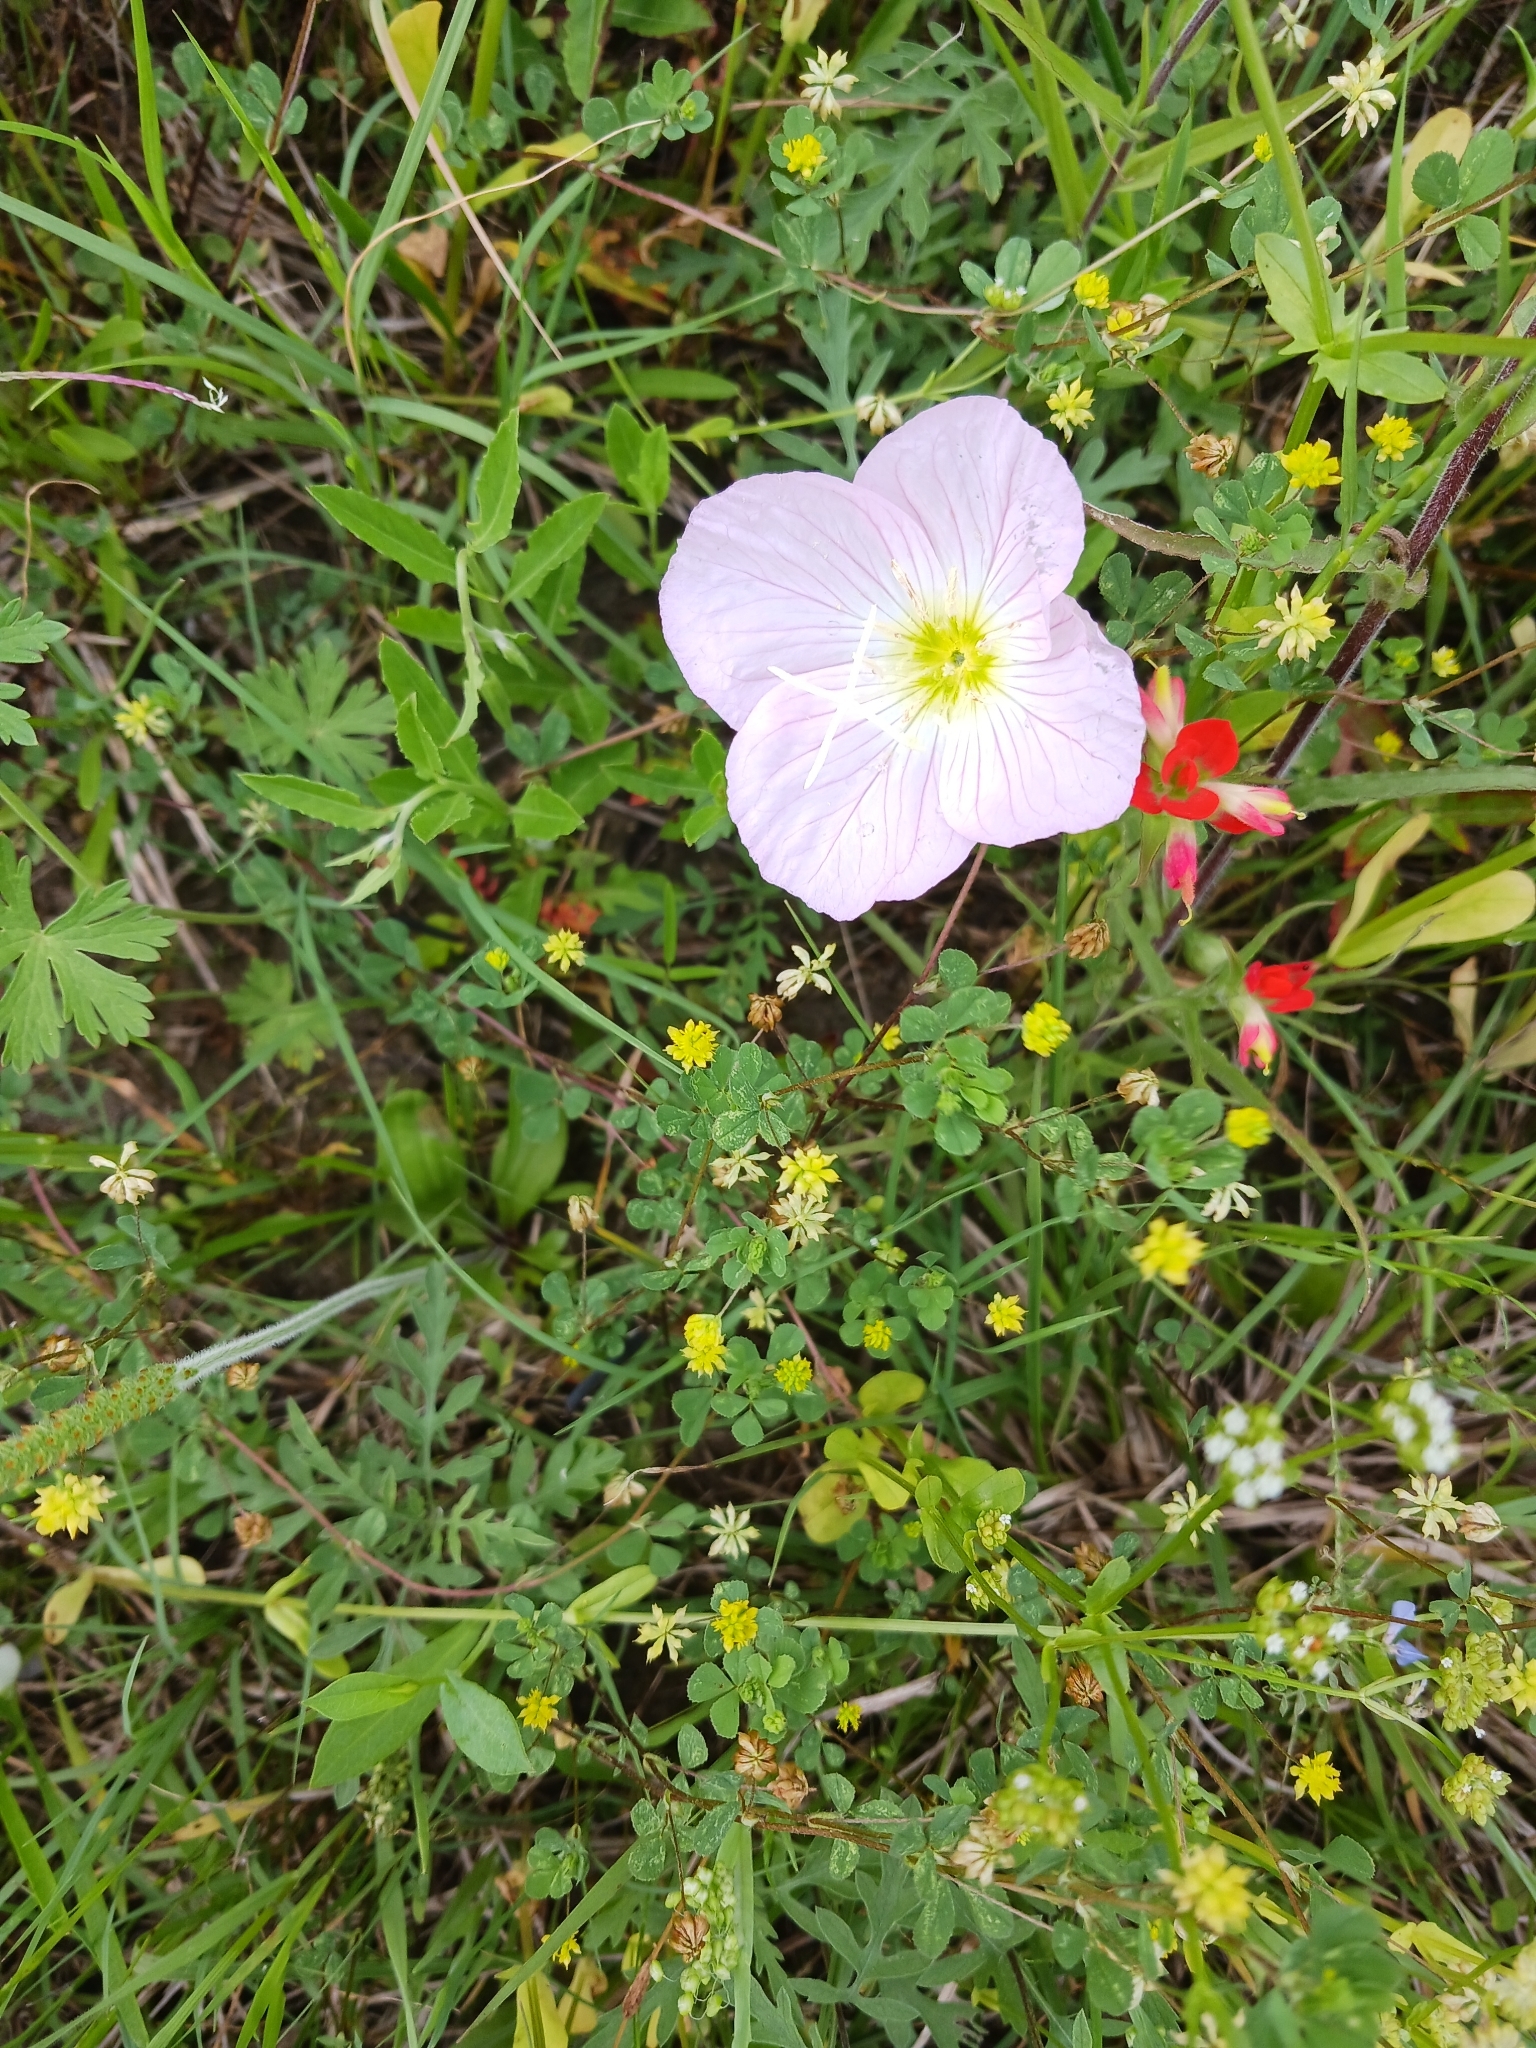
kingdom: Plantae
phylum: Tracheophyta
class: Magnoliopsida
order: Myrtales
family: Onagraceae
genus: Oenothera
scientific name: Oenothera speciosa
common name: White evening-primrose
